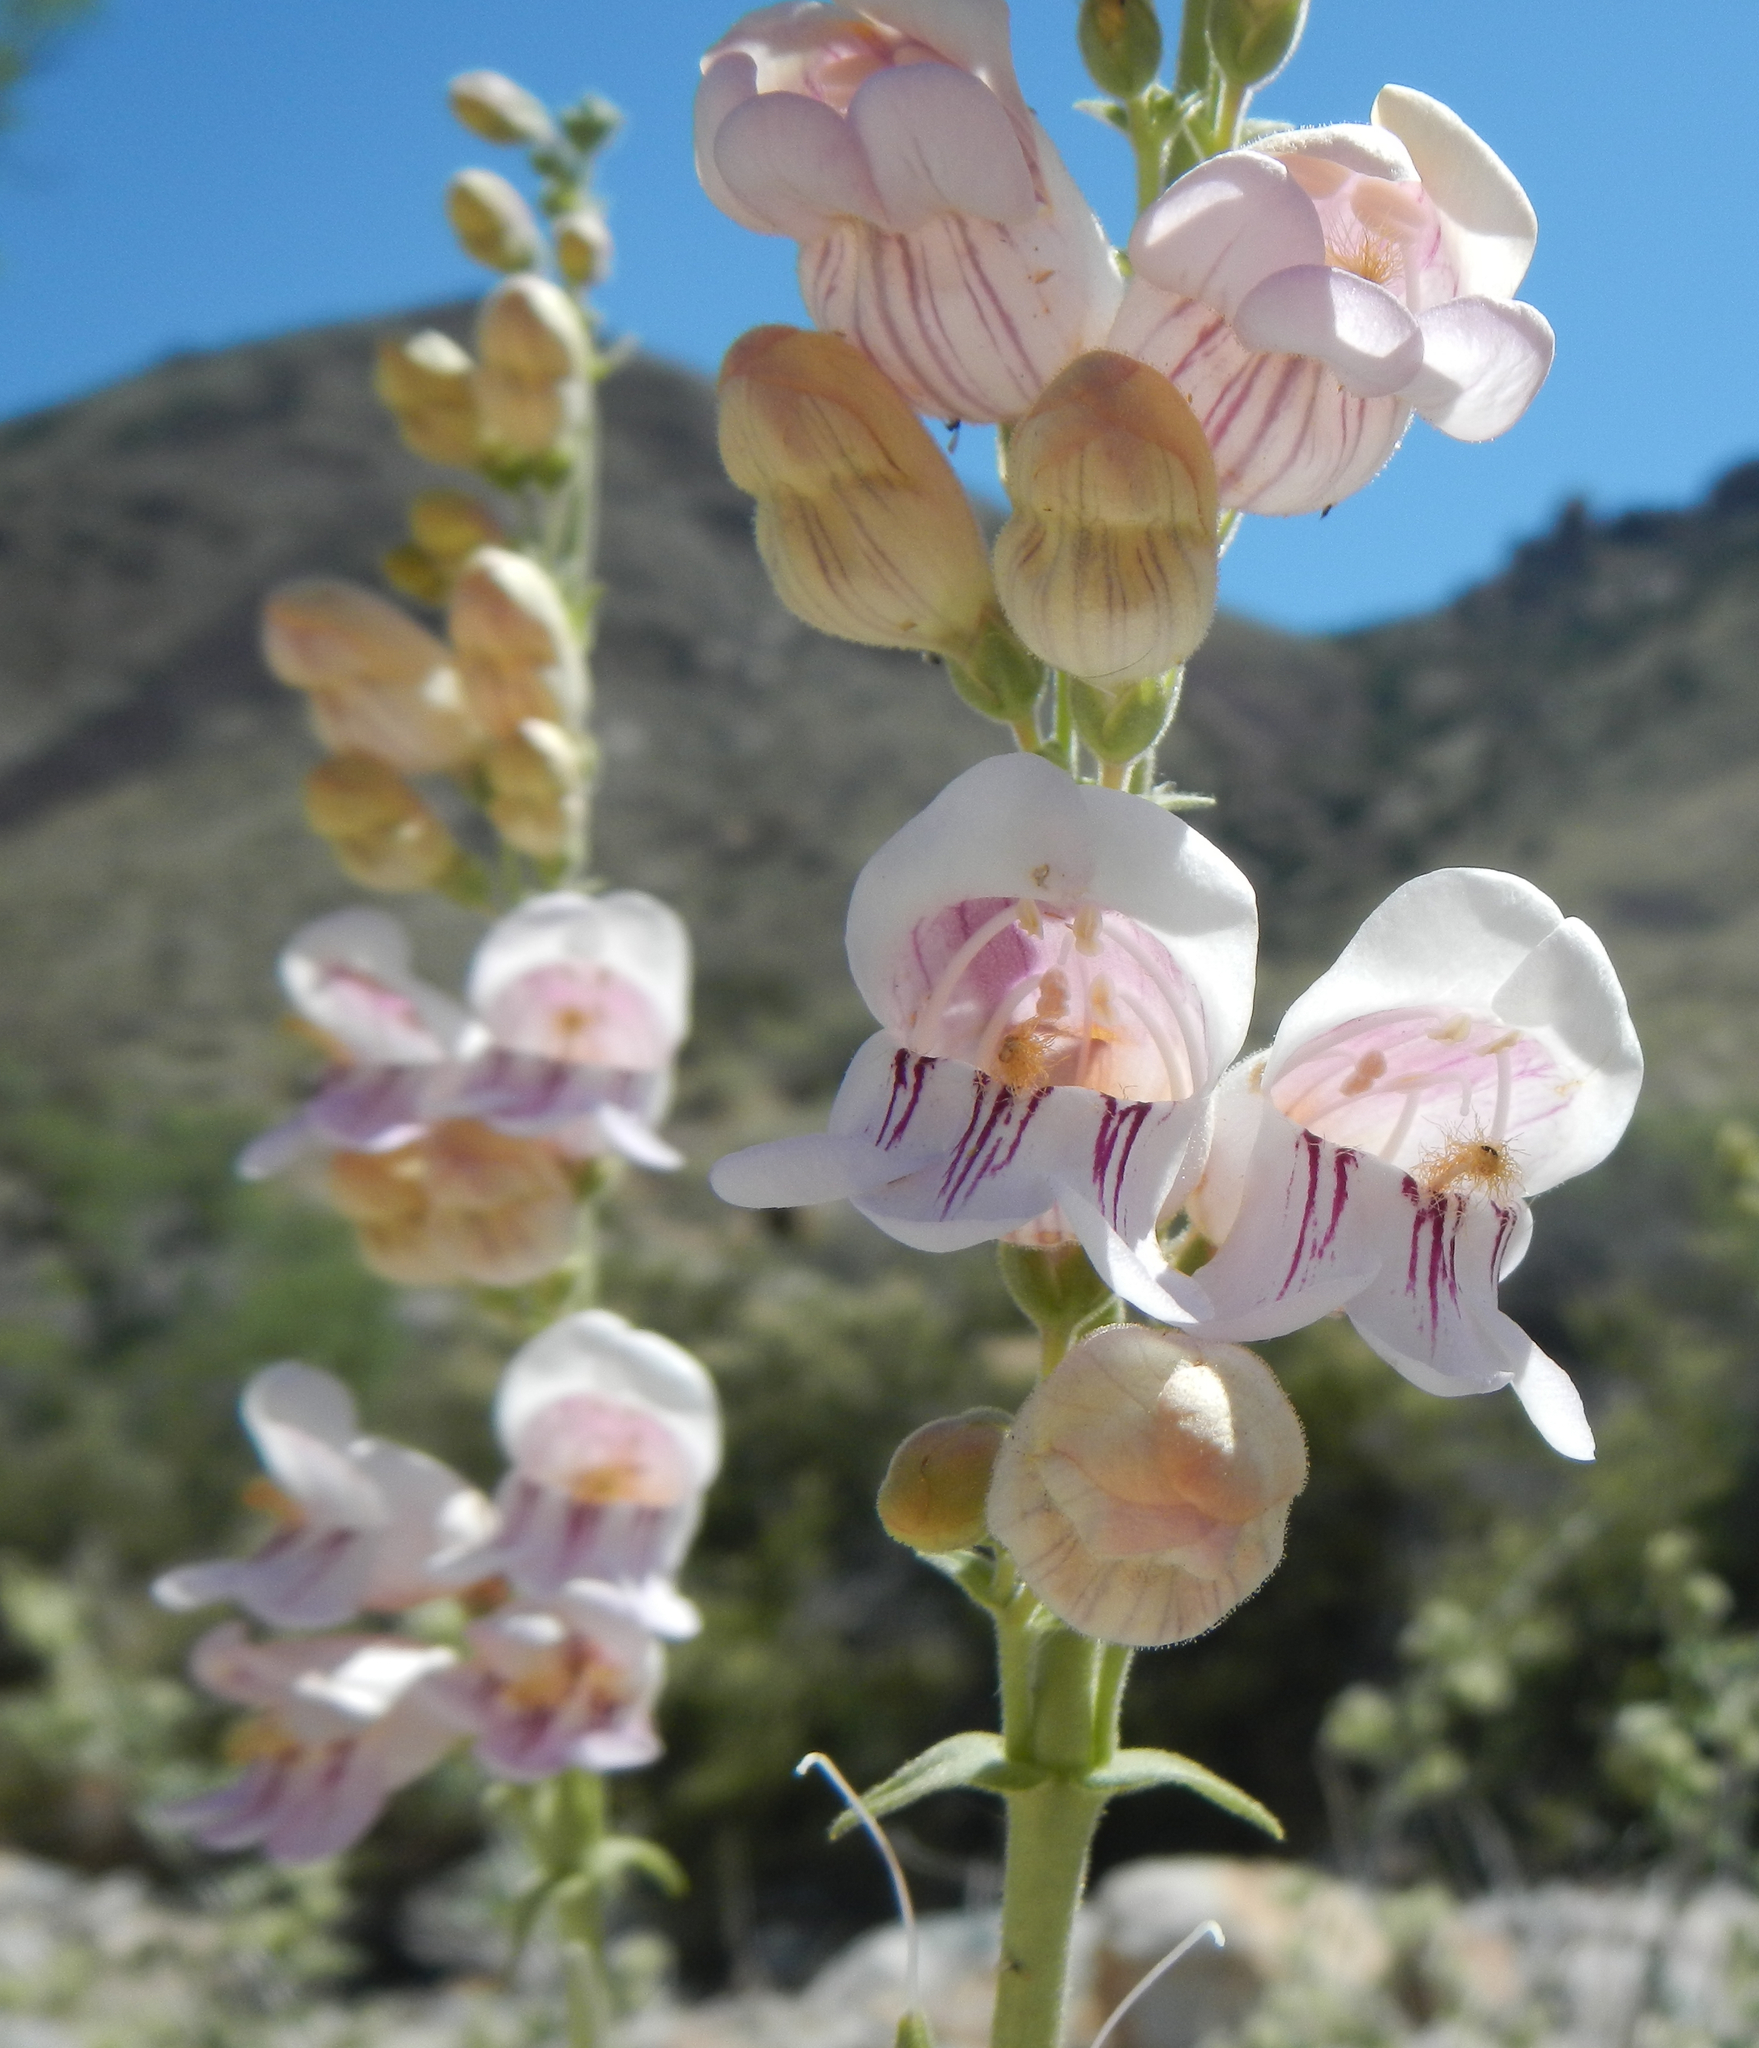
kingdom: Plantae
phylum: Tracheophyta
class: Magnoliopsida
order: Lamiales
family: Plantaginaceae
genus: Penstemon
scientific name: Penstemon palmeri
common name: Palmer penstemon
